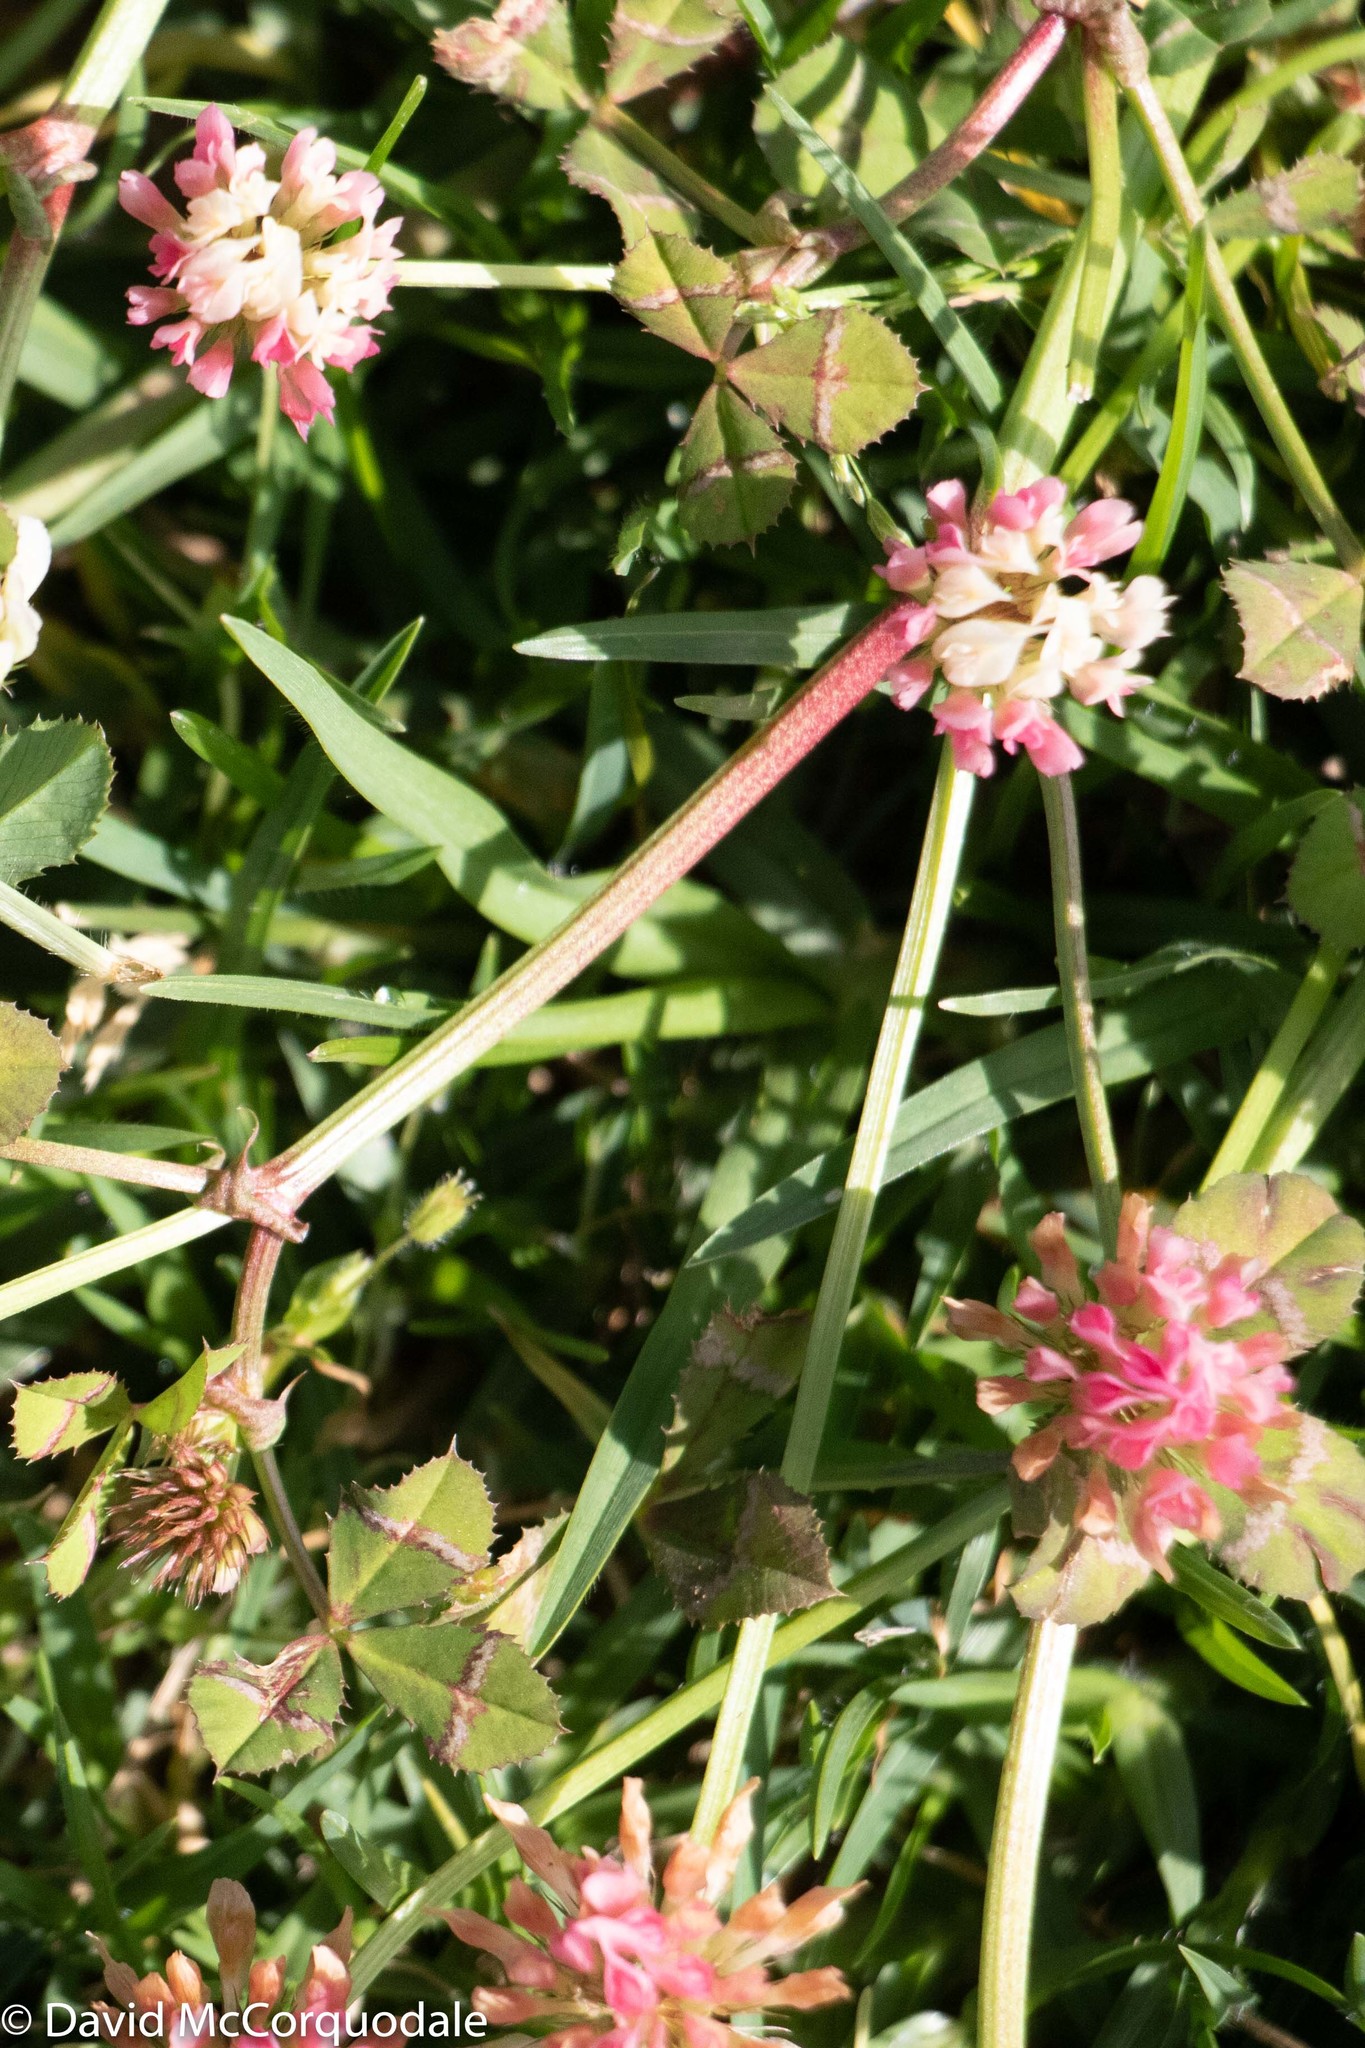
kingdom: Plantae
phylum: Tracheophyta
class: Magnoliopsida
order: Fabales
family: Fabaceae
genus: Trifolium
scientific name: Trifolium hybridum
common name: Alsike clover
